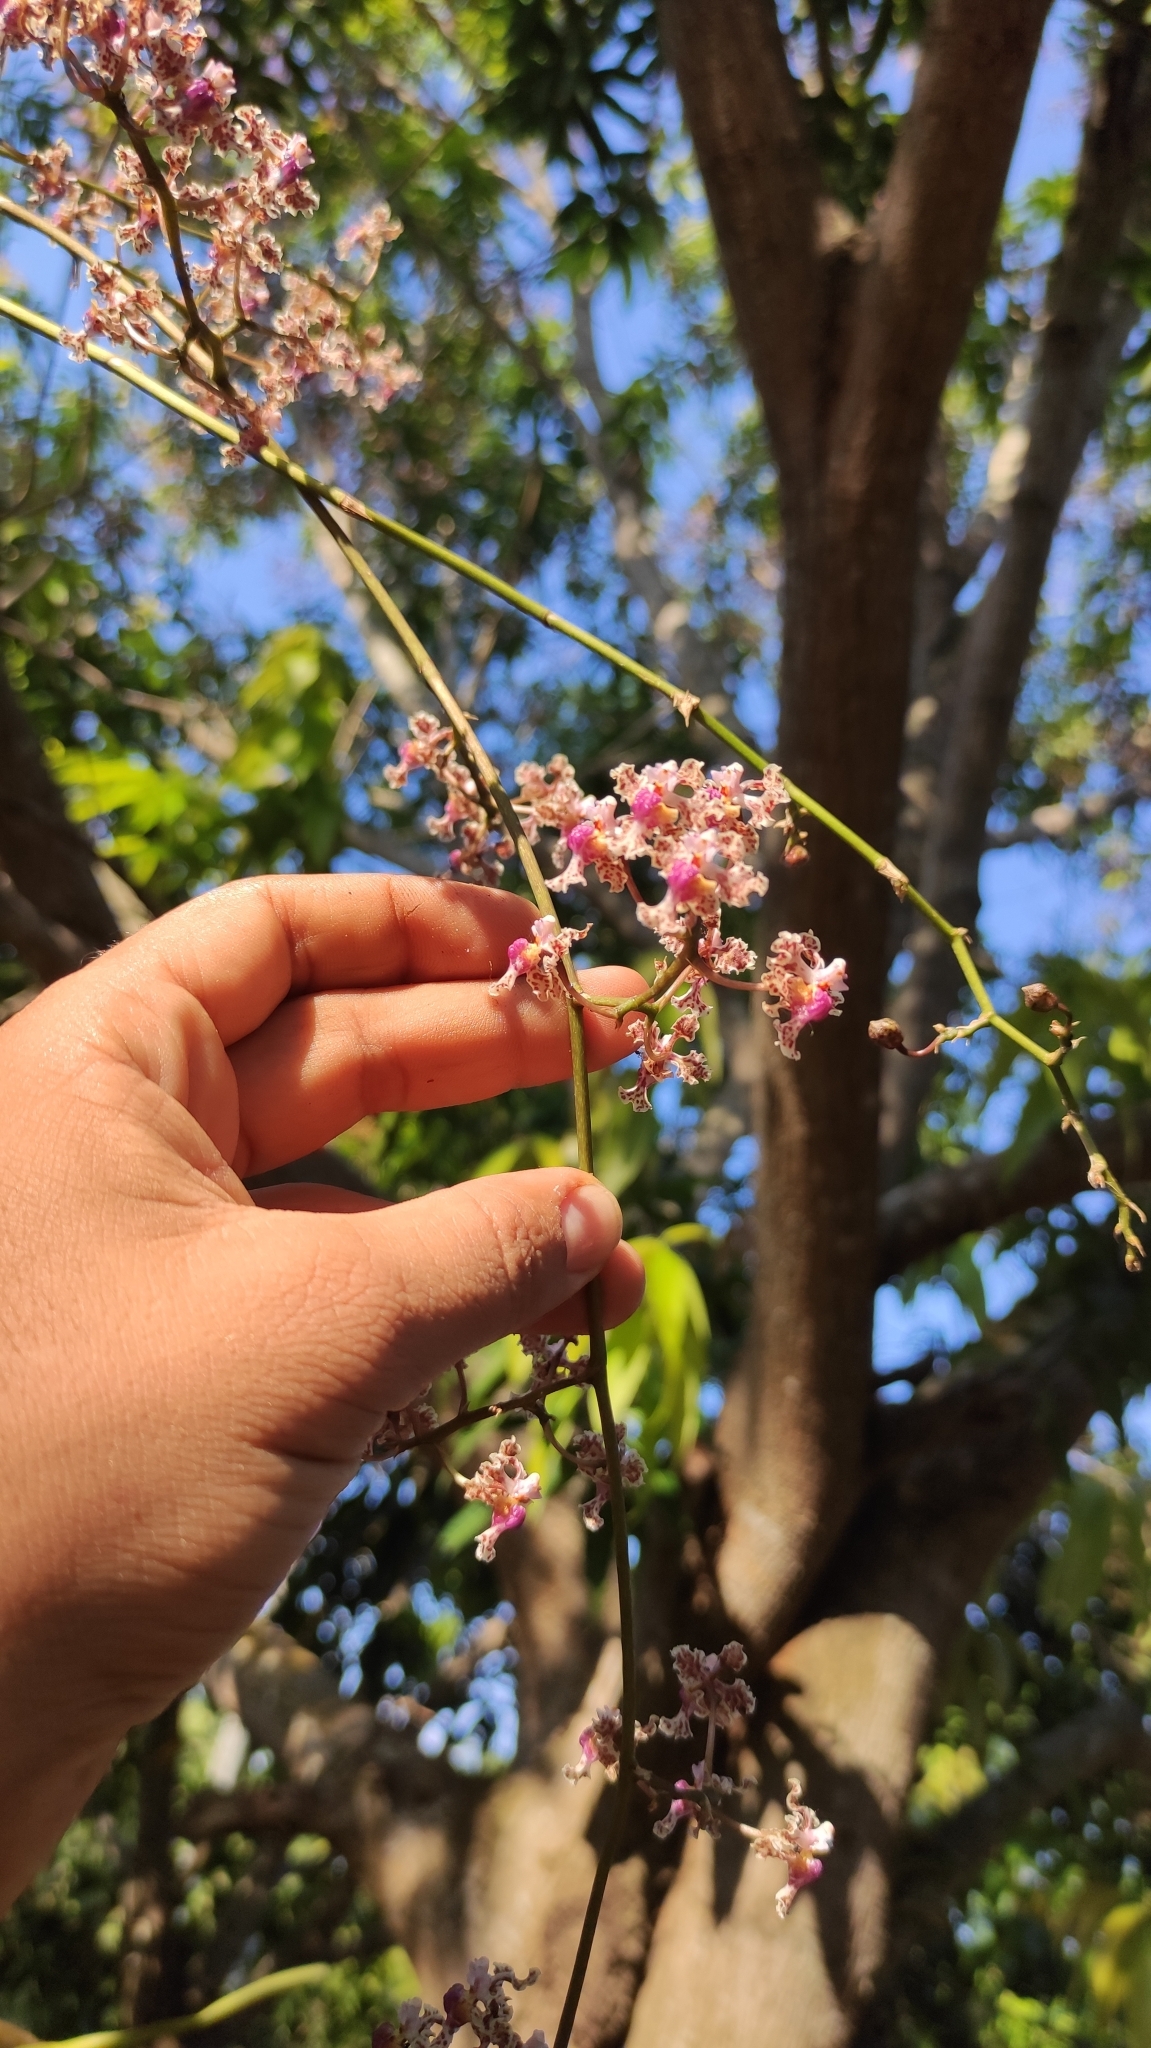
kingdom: Plantae
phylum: Tracheophyta
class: Liliopsida
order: Asparagales
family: Orchidaceae
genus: Trichocentrum
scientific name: Trichocentrum carthagenense
